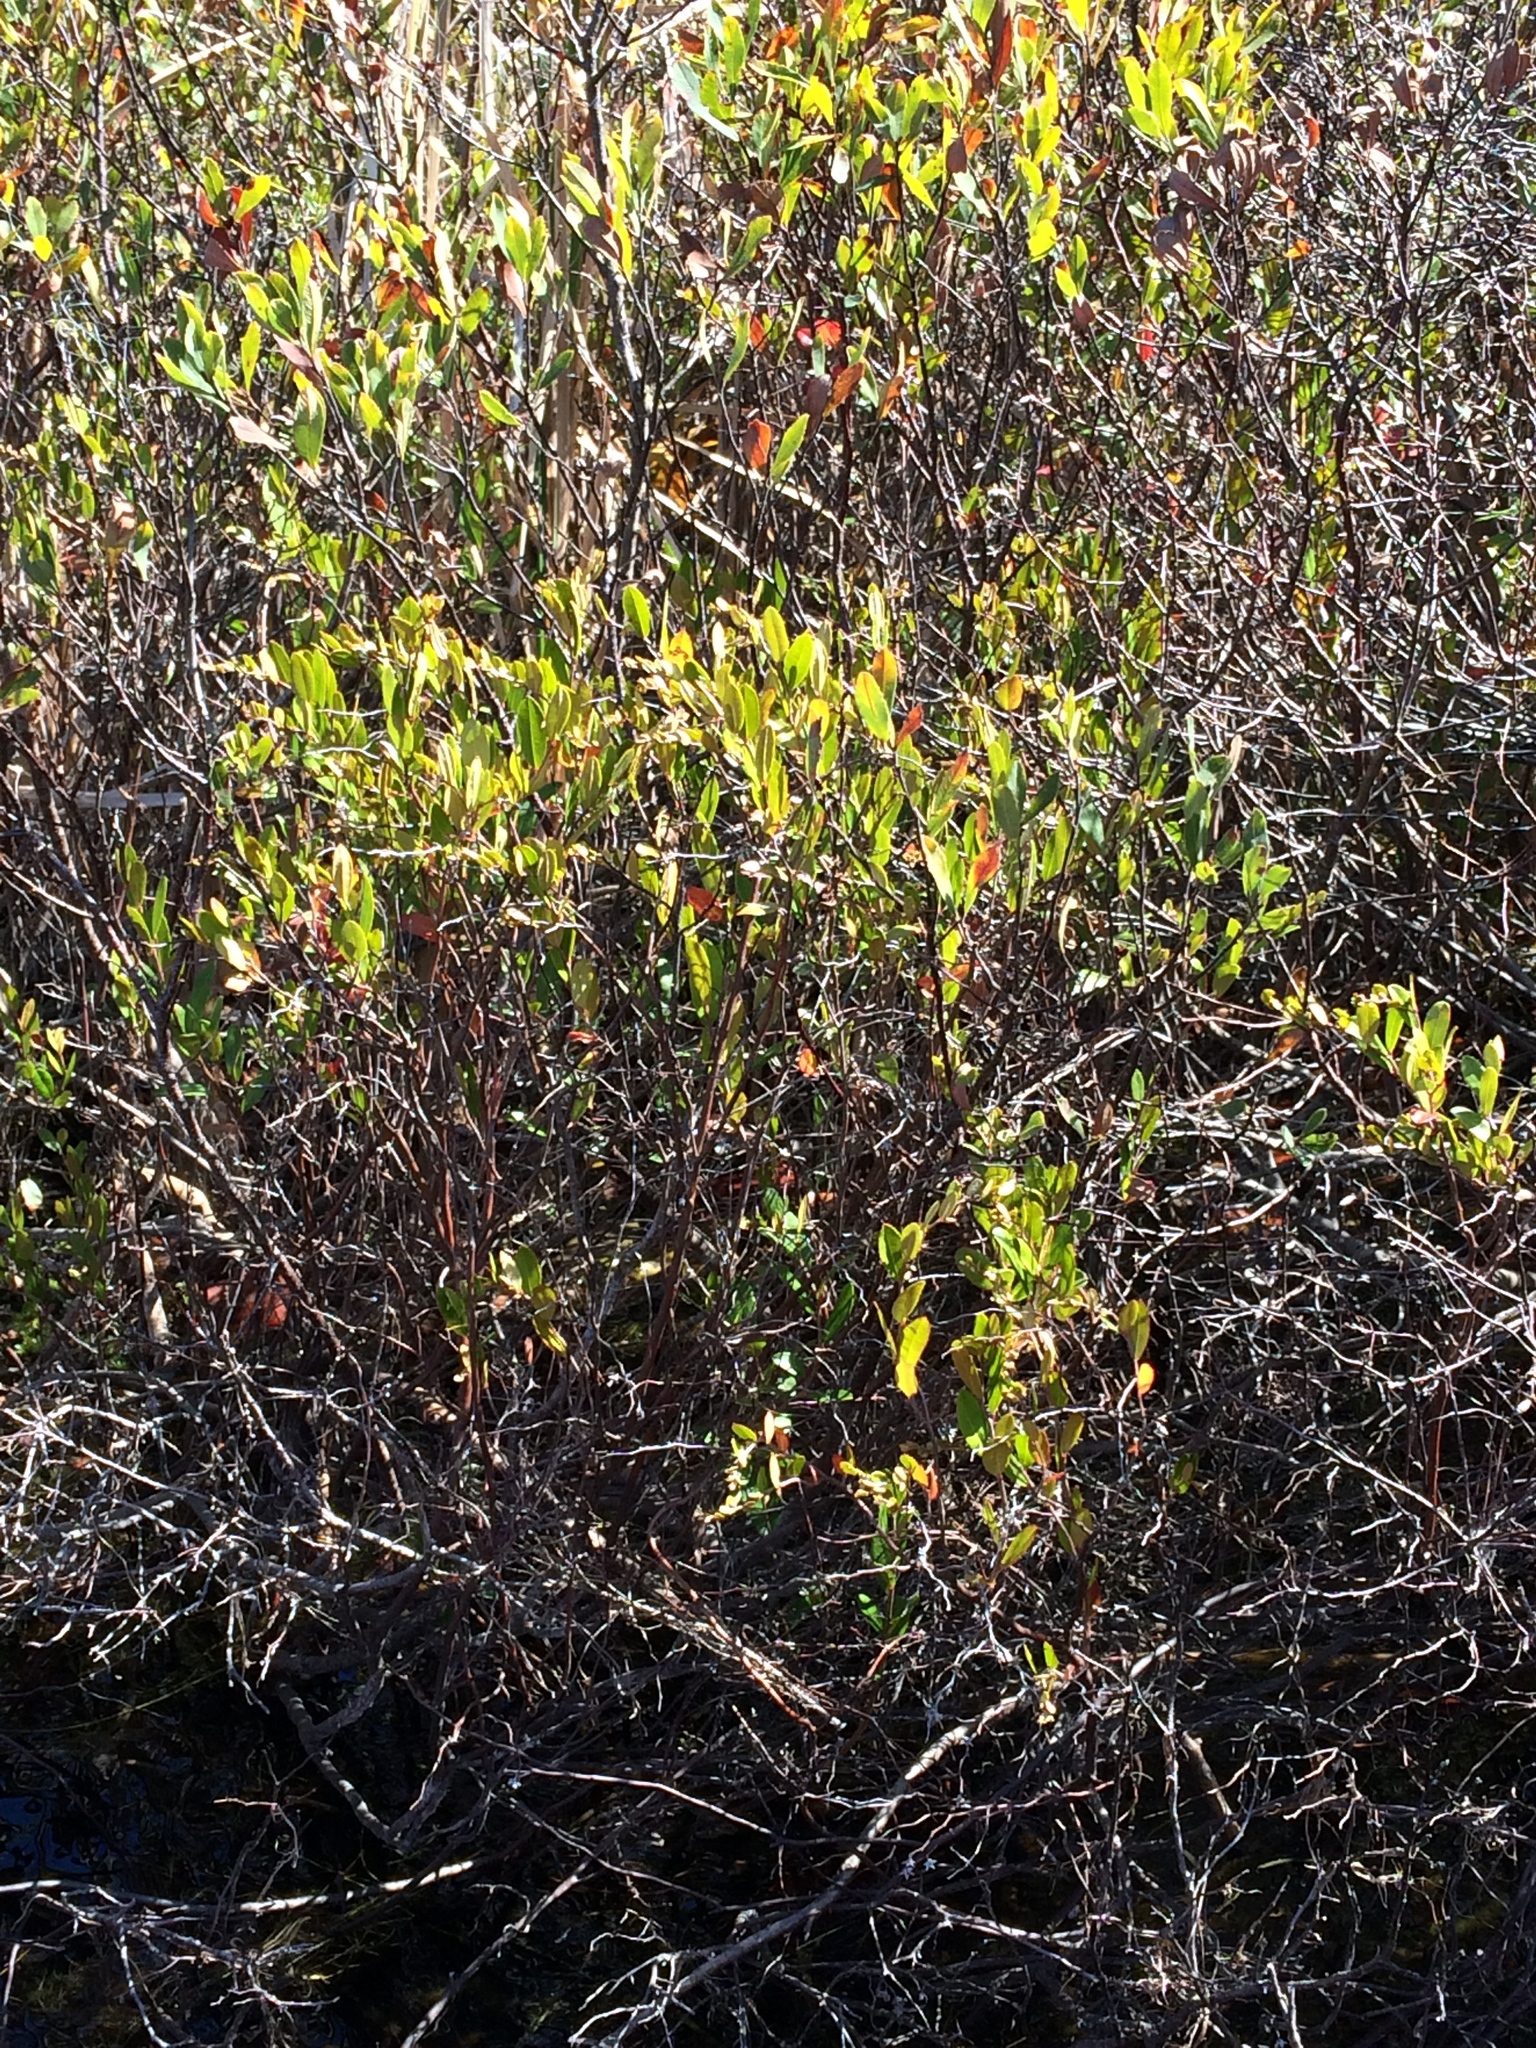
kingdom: Plantae
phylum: Tracheophyta
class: Magnoliopsida
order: Ericales
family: Ericaceae
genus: Chamaedaphne
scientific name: Chamaedaphne calyculata
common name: Leatherleaf
